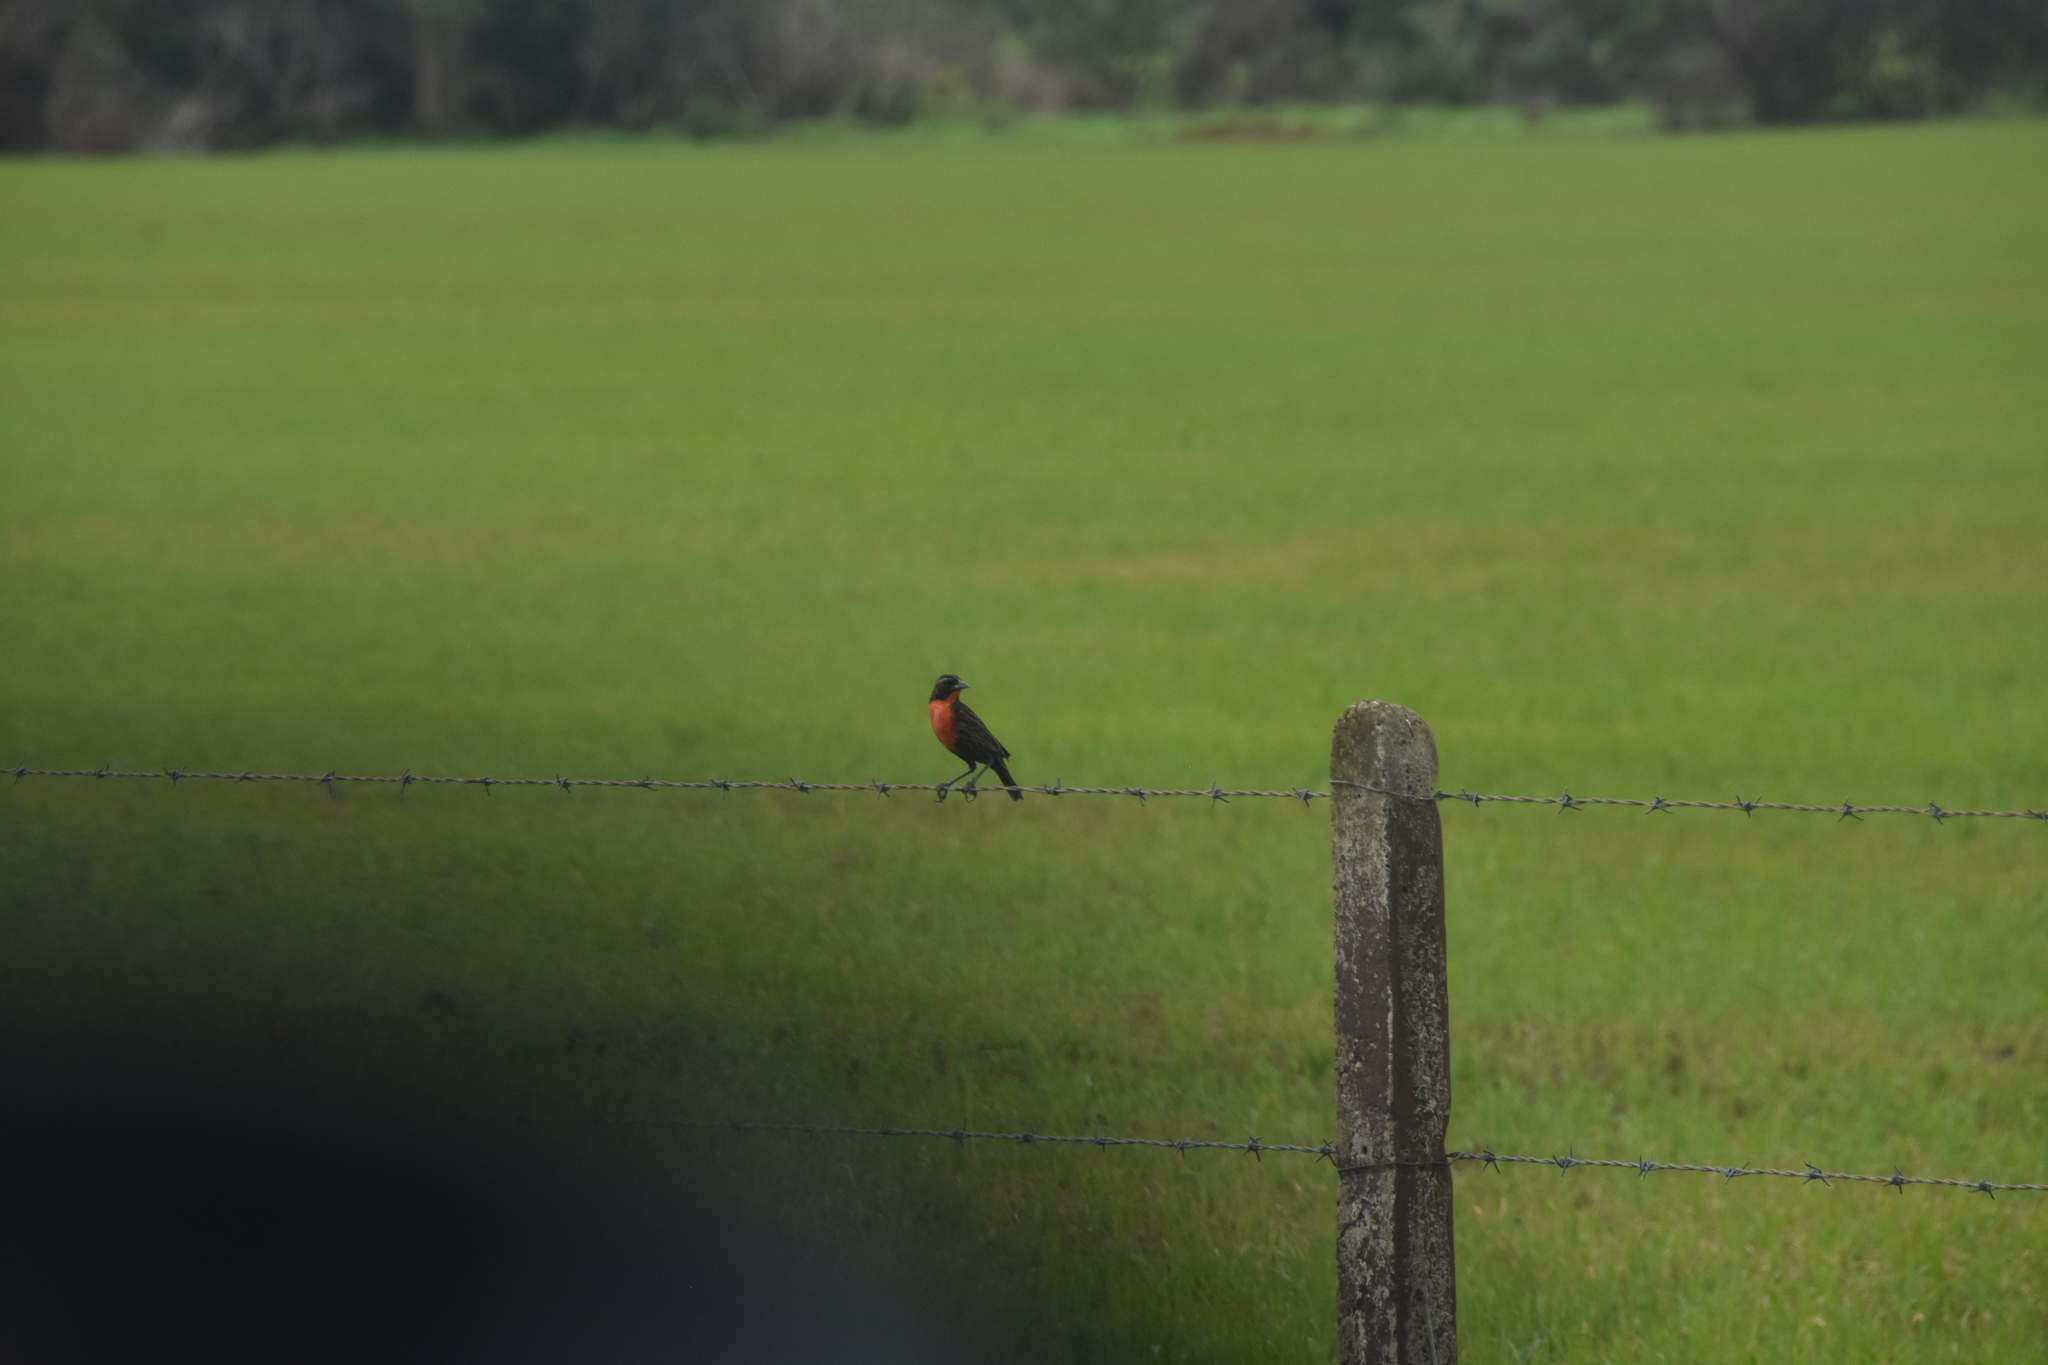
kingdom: Animalia
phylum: Chordata
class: Aves
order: Passeriformes
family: Icteridae
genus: Sturnella
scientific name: Sturnella militaris
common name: Red-breasted blackbird
